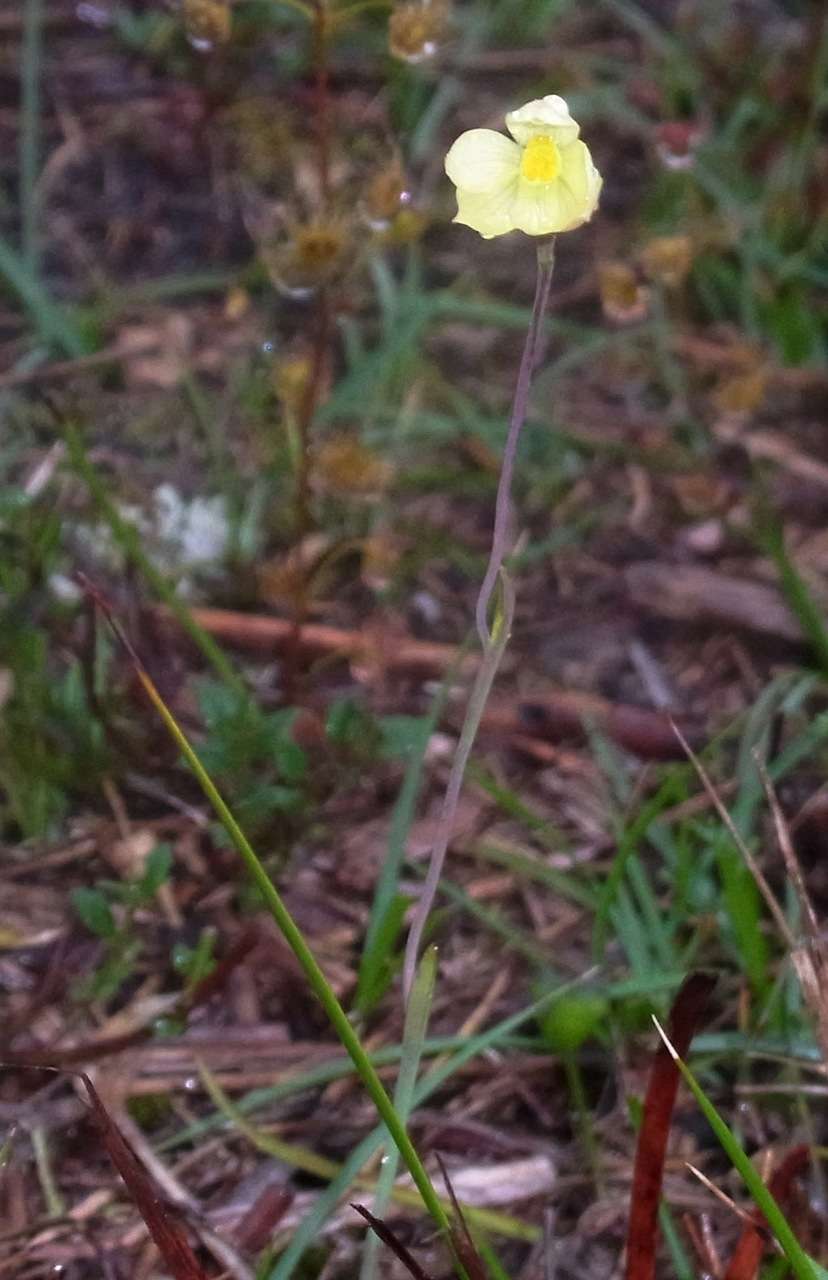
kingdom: Plantae
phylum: Tracheophyta
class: Liliopsida
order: Asparagales
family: Orchidaceae
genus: Thelymitra
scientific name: Thelymitra flexuosa
